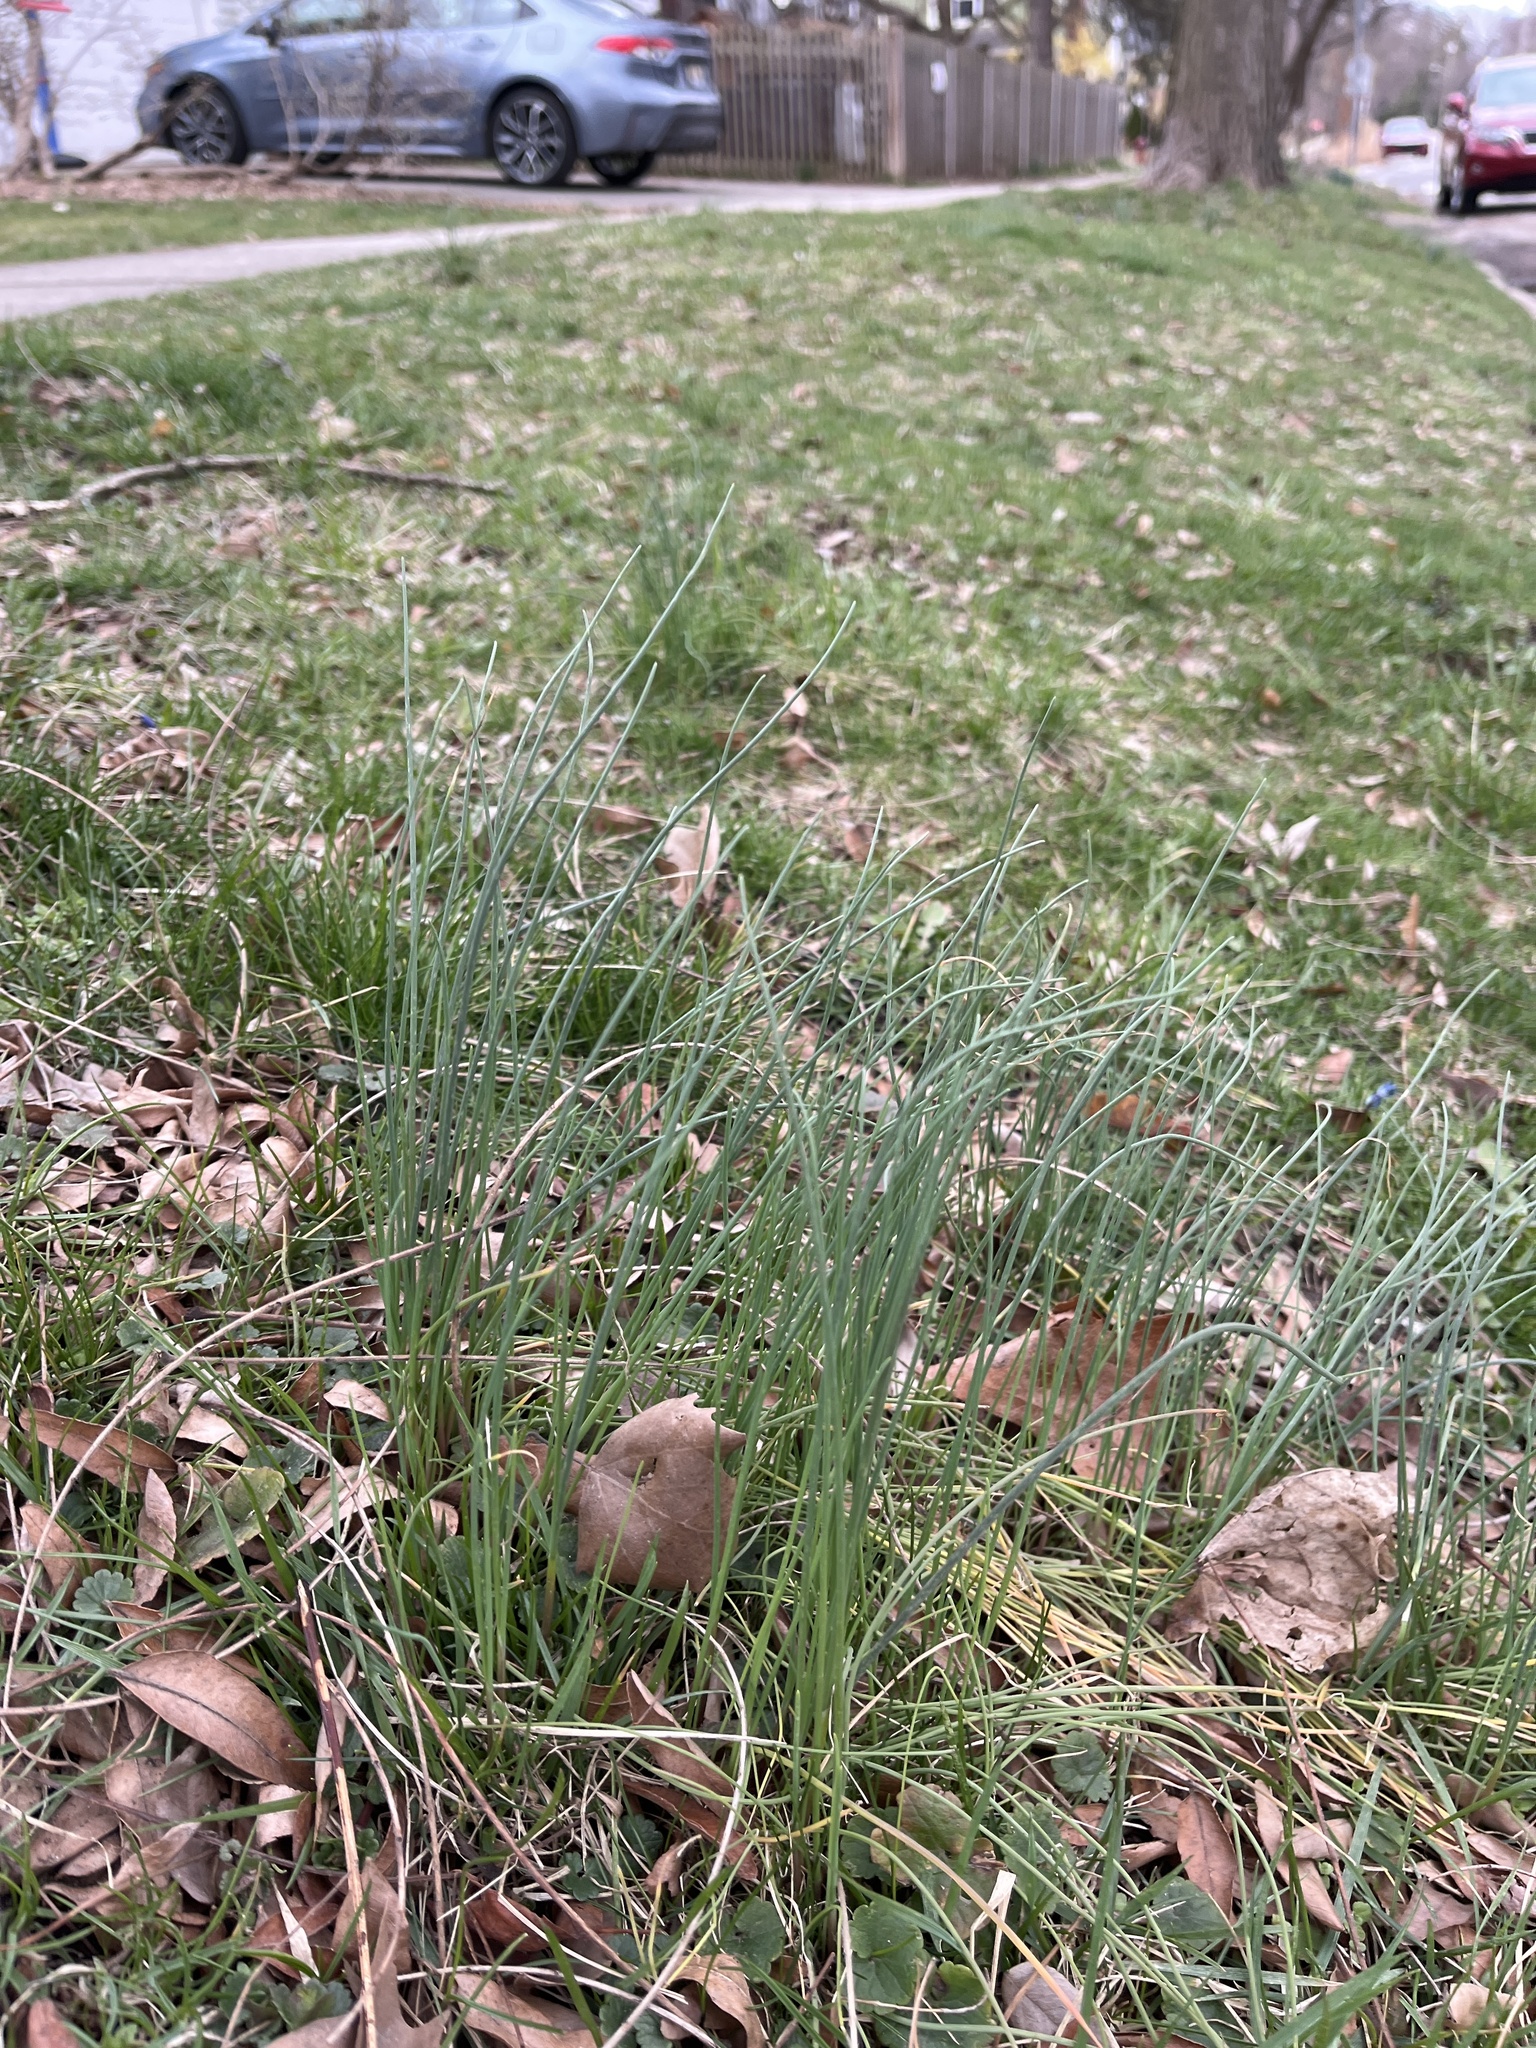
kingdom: Plantae
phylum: Tracheophyta
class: Liliopsida
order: Asparagales
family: Amaryllidaceae
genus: Allium
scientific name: Allium vineale
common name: Crow garlic
